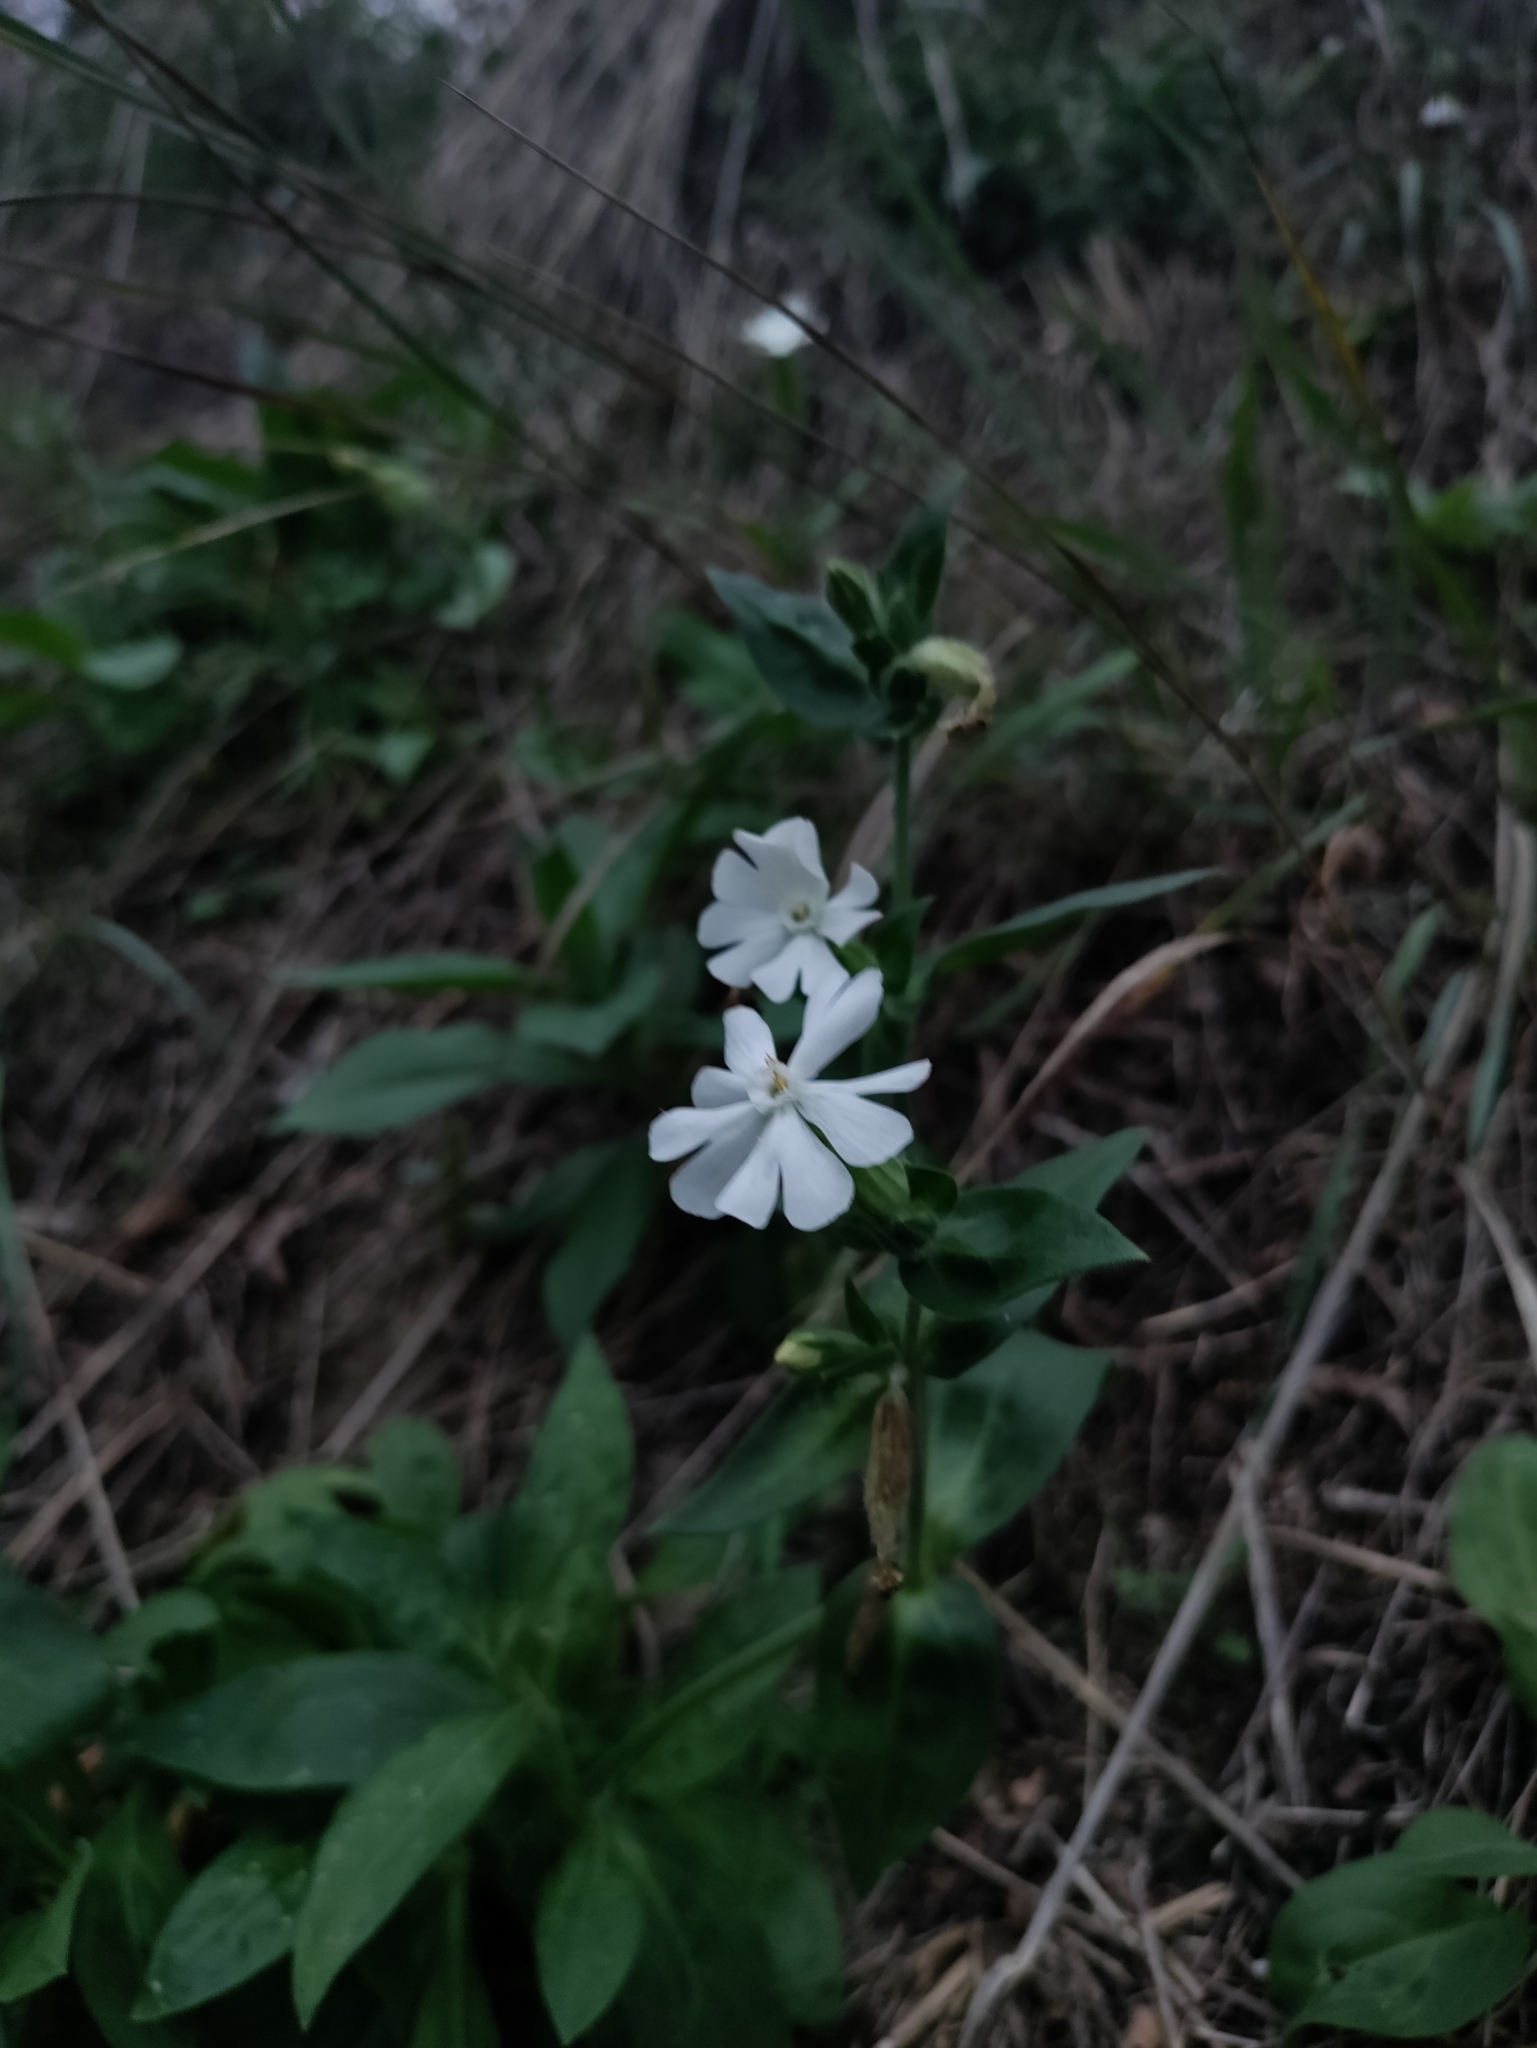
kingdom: Plantae
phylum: Tracheophyta
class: Magnoliopsida
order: Caryophyllales
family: Caryophyllaceae
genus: Silene
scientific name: Silene latifolia
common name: White campion
